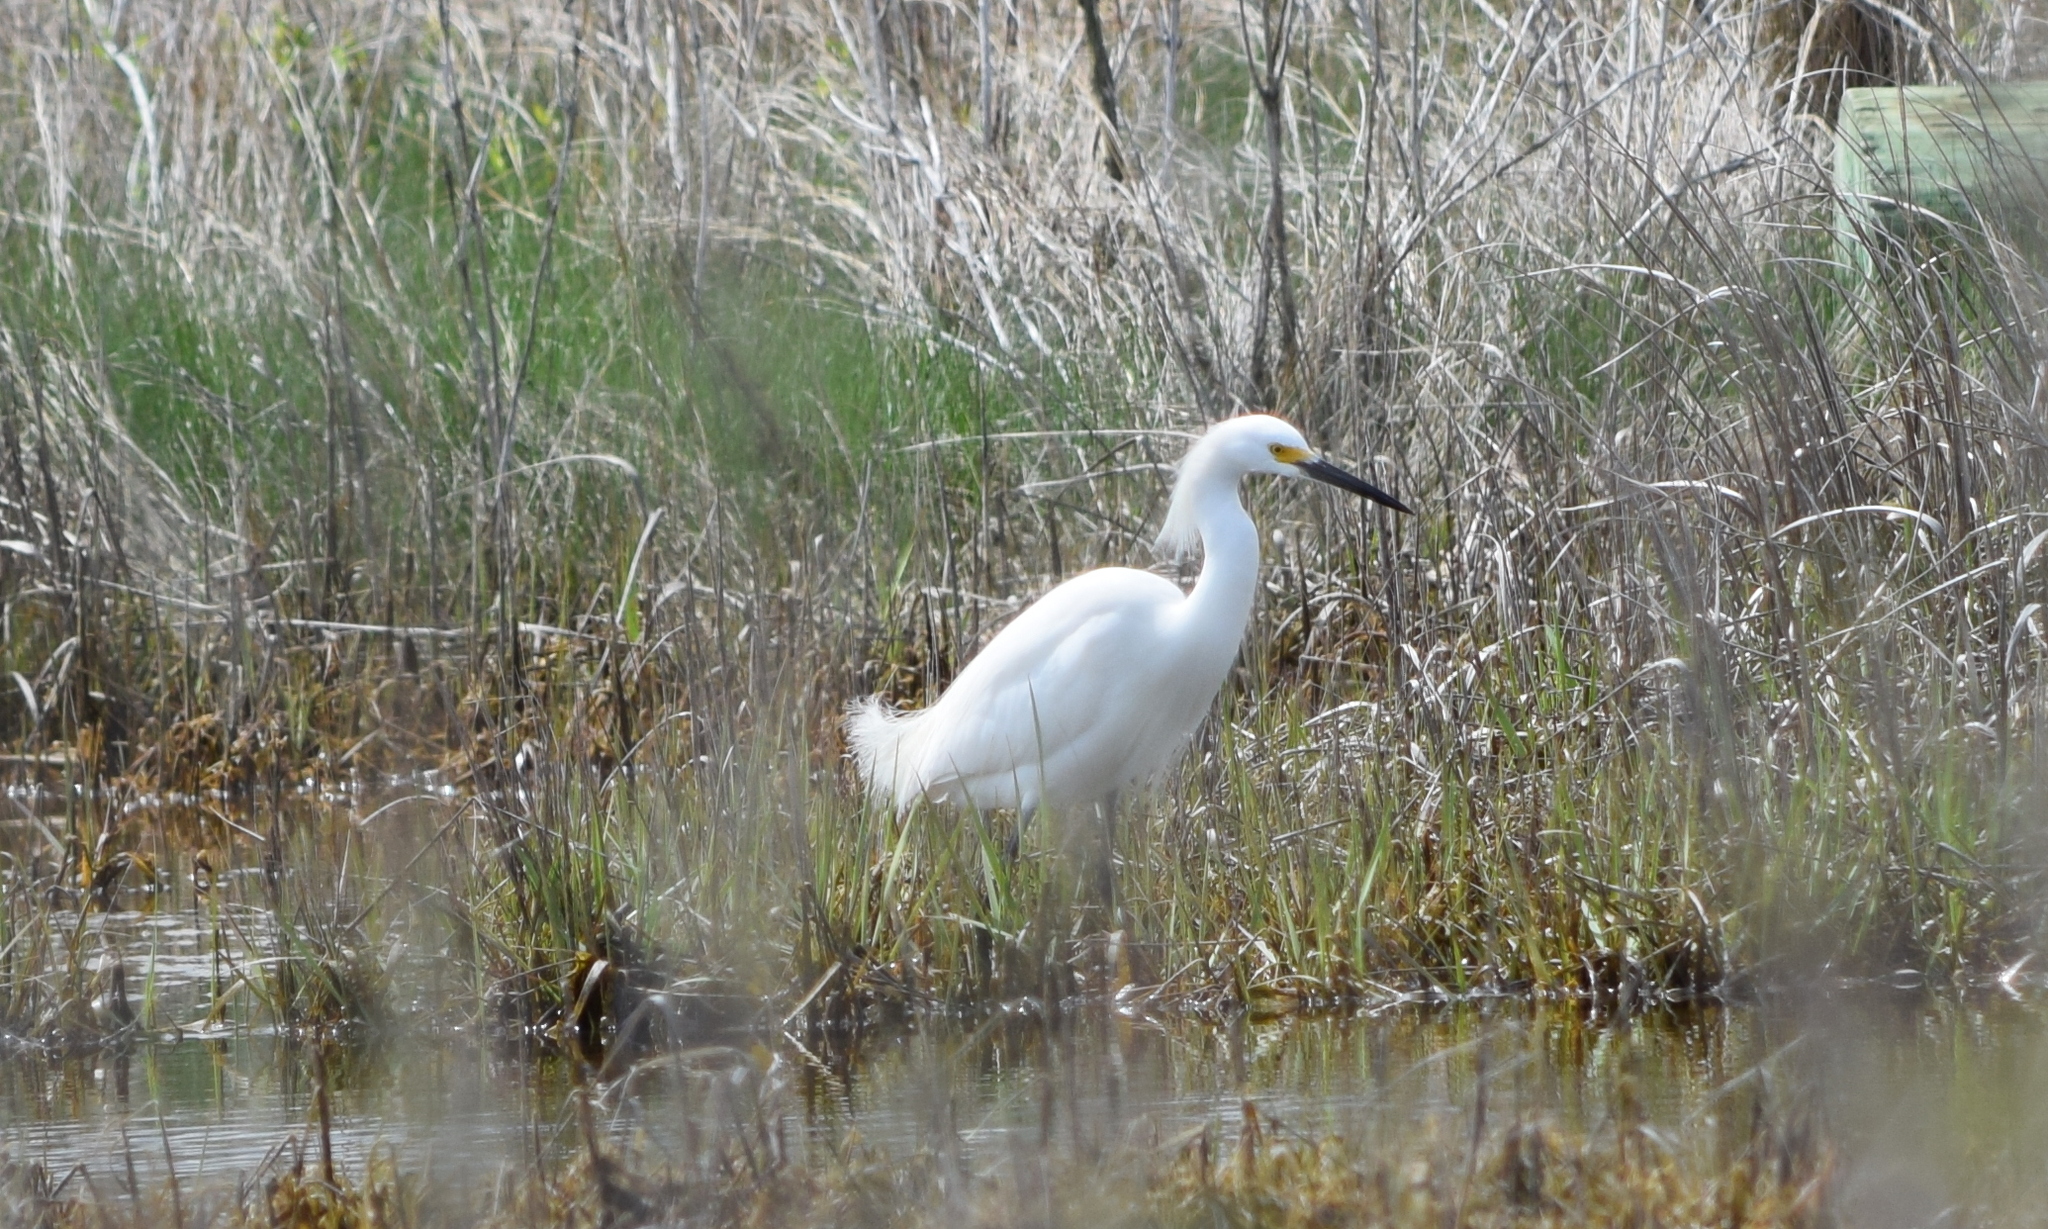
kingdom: Animalia
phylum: Chordata
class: Aves
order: Pelecaniformes
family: Ardeidae
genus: Egretta
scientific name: Egretta thula
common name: Snowy egret
